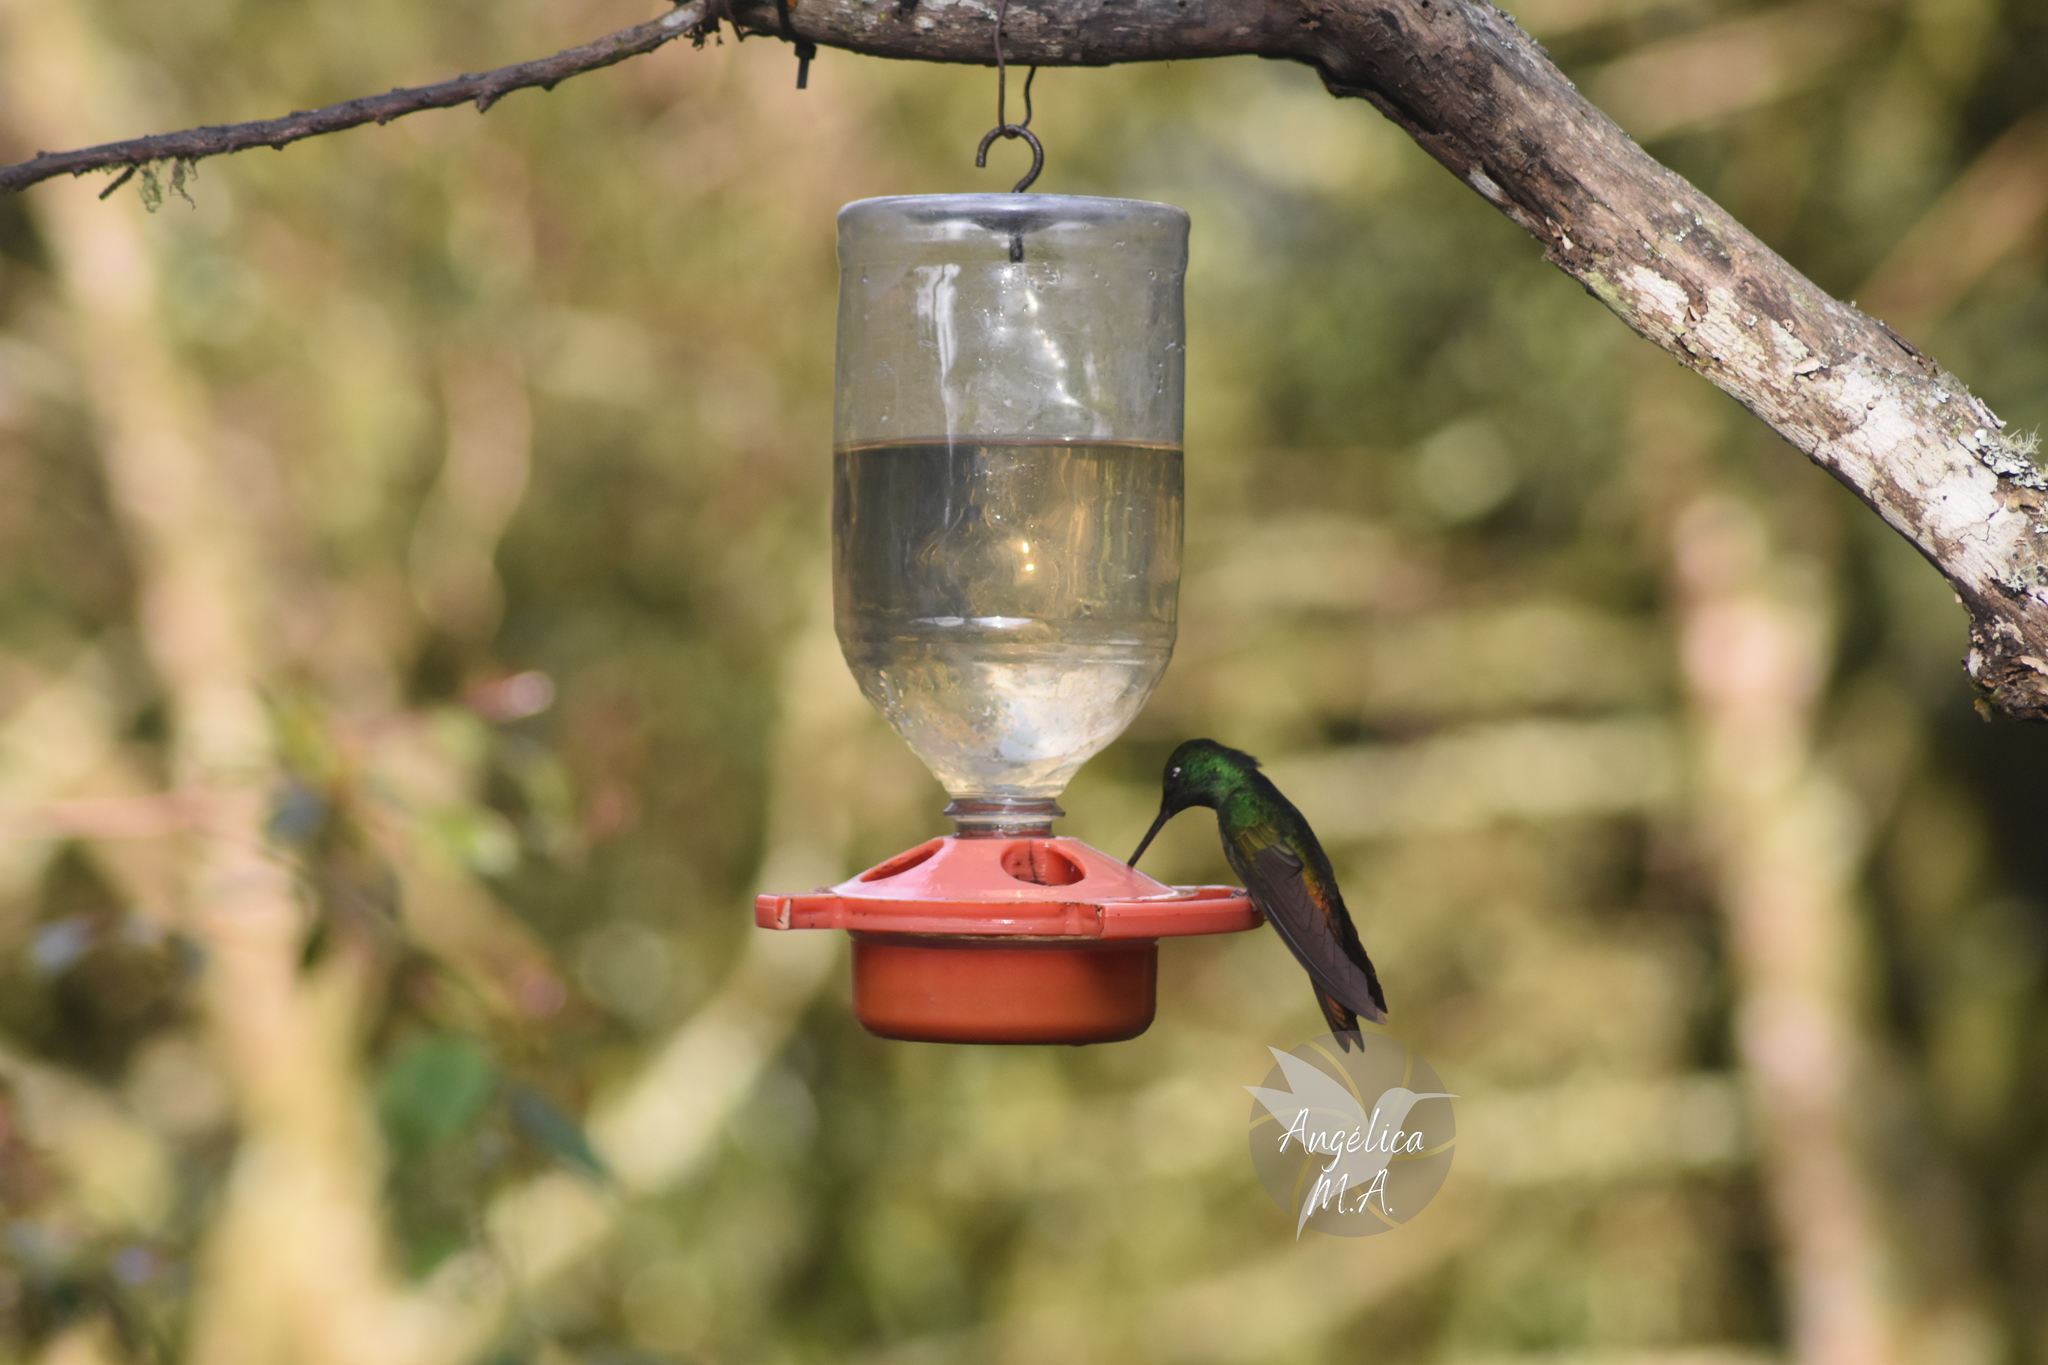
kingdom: Animalia
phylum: Chordata
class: Aves
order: Apodiformes
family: Trochilidae
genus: Coeligena
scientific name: Coeligena bonapartei
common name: Golden-bellied starfrontlet
